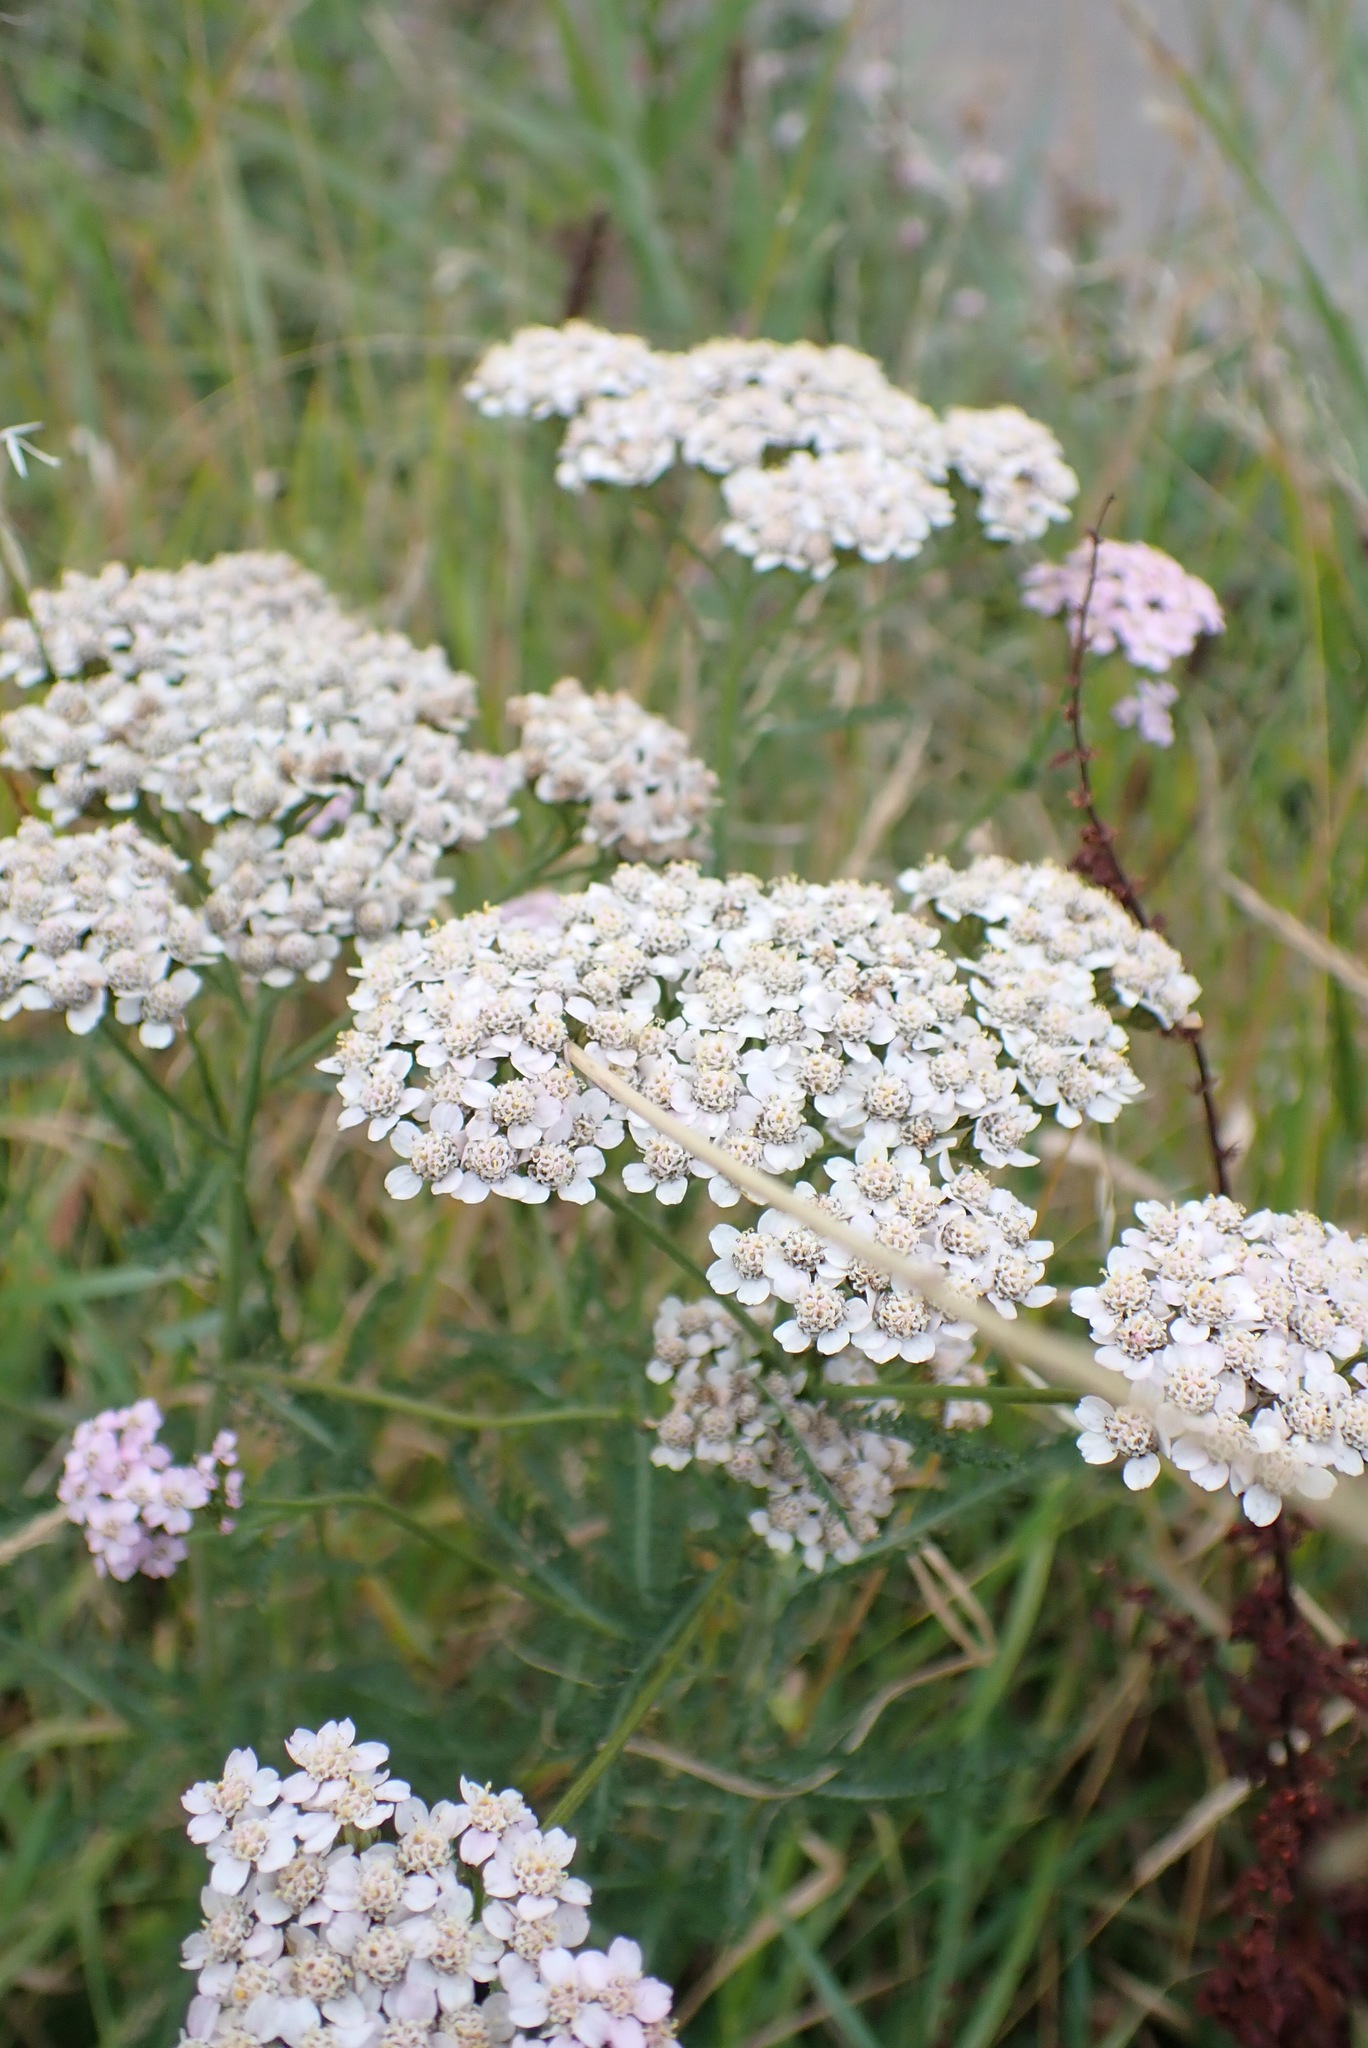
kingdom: Plantae
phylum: Tracheophyta
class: Magnoliopsida
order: Asterales
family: Asteraceae
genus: Achillea
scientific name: Achillea millefolium
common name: Yarrow
